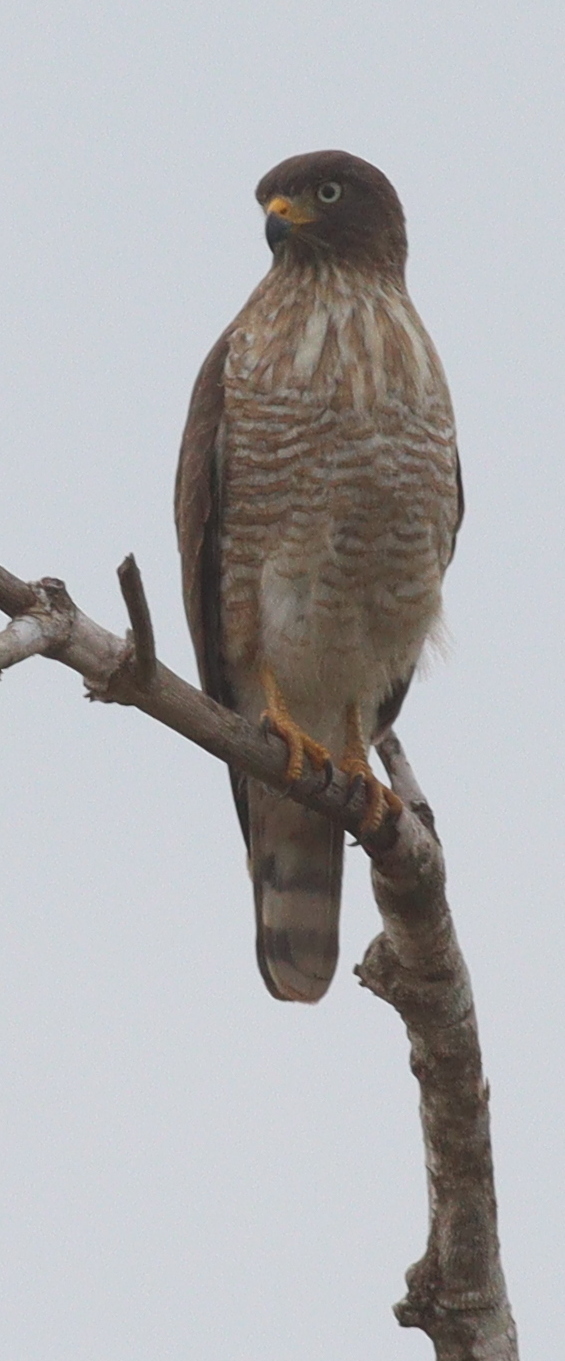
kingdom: Animalia
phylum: Chordata
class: Aves
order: Accipitriformes
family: Accipitridae
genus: Rupornis
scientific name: Rupornis magnirostris
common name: Roadside hawk
